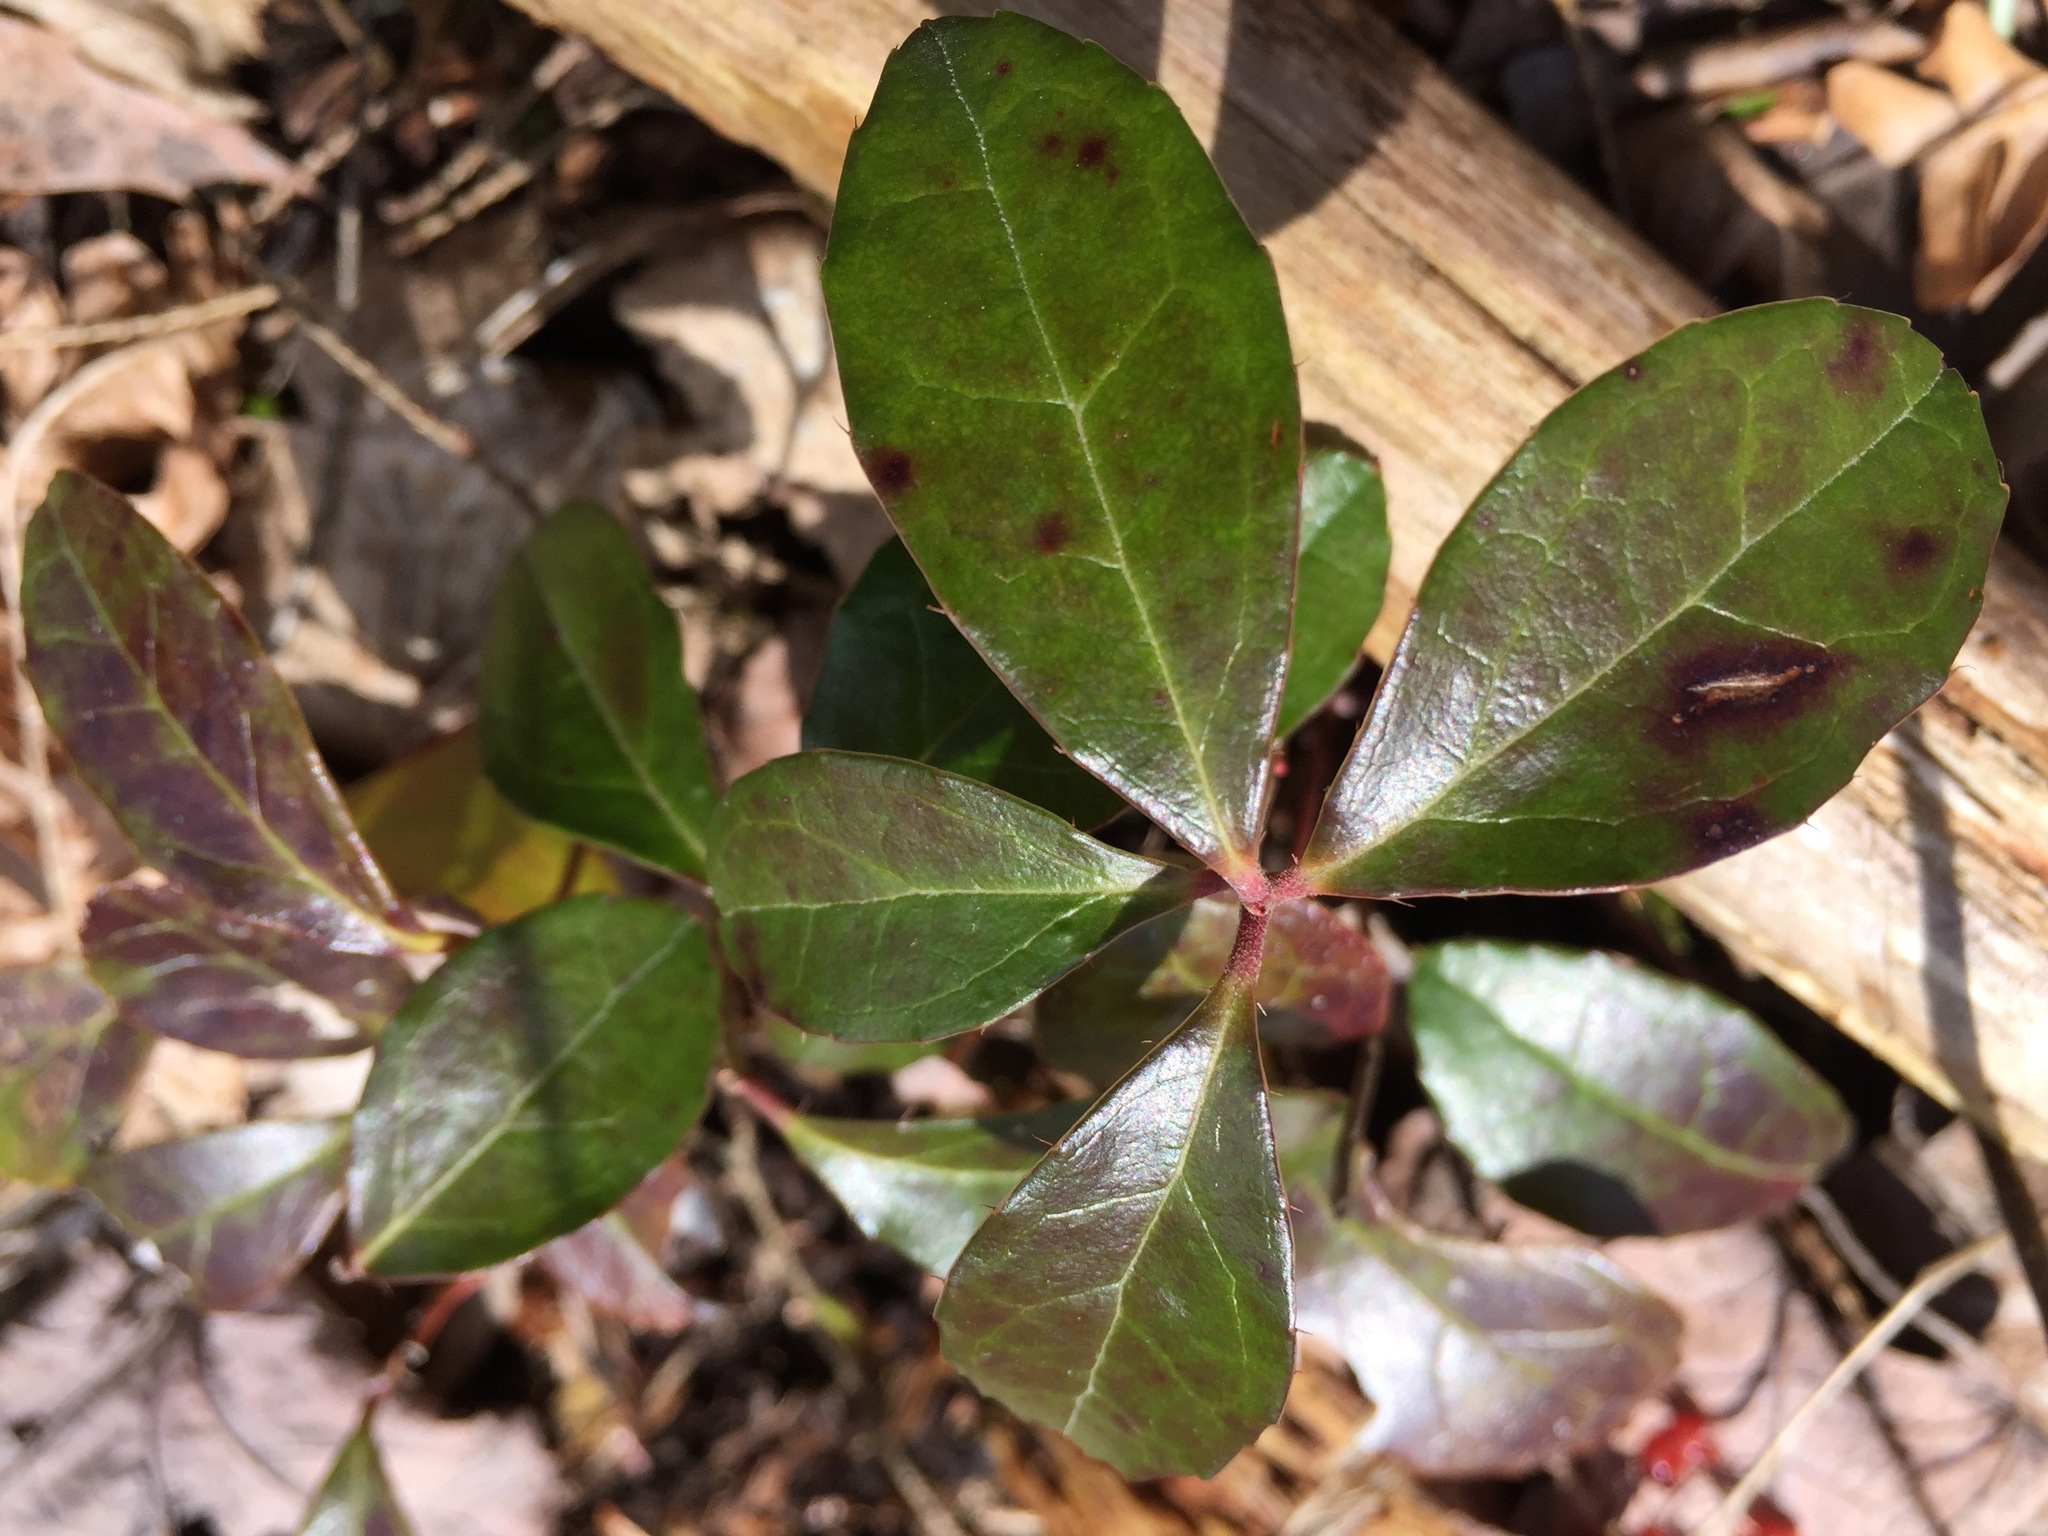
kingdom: Plantae
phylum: Tracheophyta
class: Magnoliopsida
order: Ericales
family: Ericaceae
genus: Gaultheria
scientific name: Gaultheria procumbens
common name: Checkerberry
